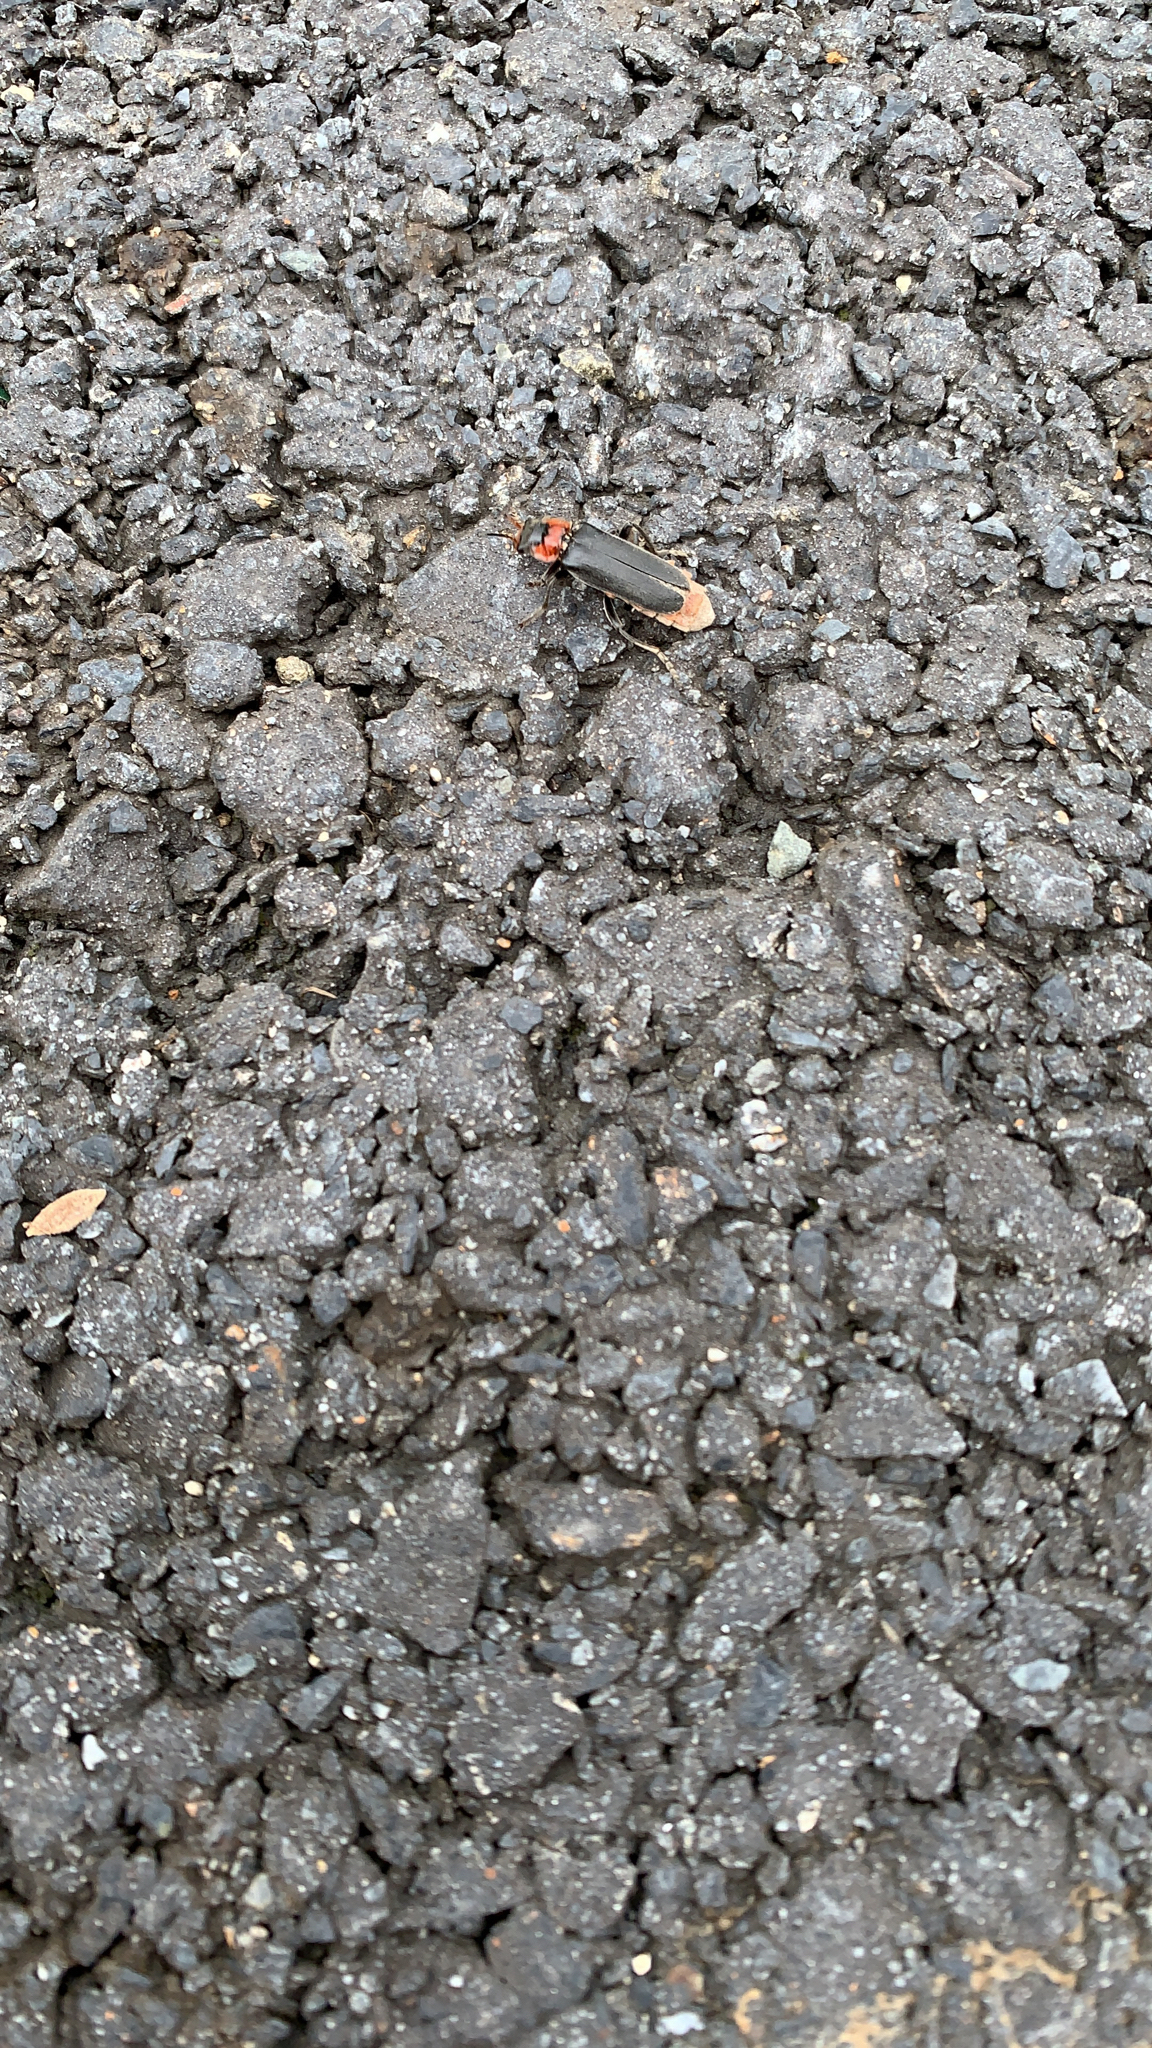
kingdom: Animalia
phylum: Arthropoda
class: Insecta
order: Coleoptera
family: Cantharidae
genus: Cantharis
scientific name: Cantharis fusca
